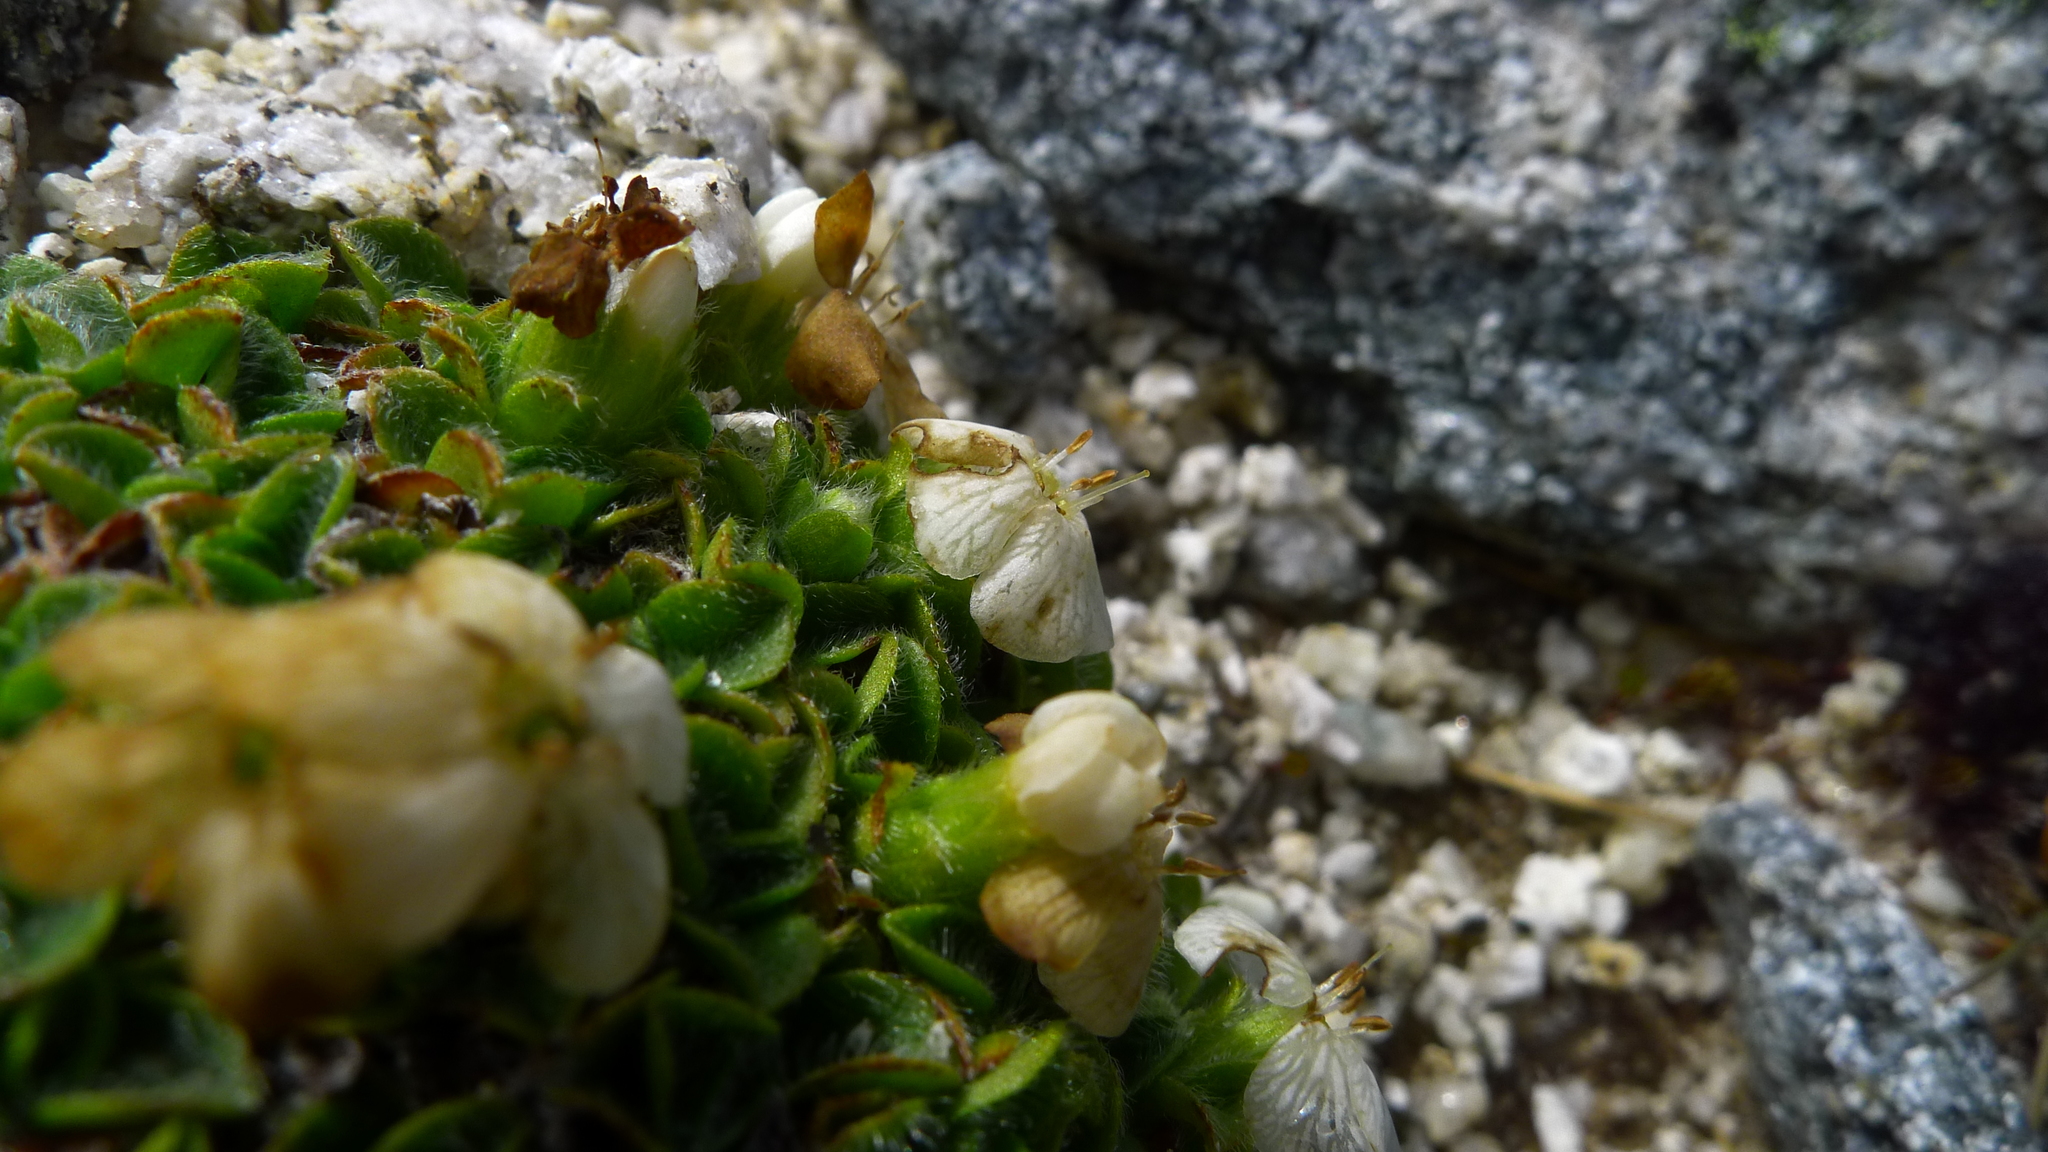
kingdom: Plantae
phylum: Tracheophyta
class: Magnoliopsida
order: Boraginales
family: Boraginaceae
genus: Myosotis
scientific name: Myosotis retrorsa
